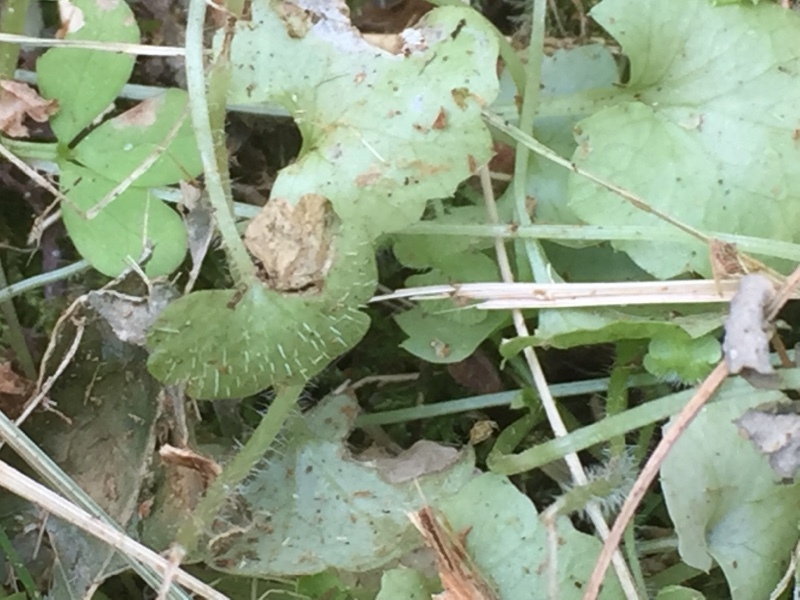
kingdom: Plantae
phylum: Tracheophyta
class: Magnoliopsida
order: Lamiales
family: Plantaginaceae
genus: Sibthorpia
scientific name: Sibthorpia europaea
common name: Cornish moneywort
